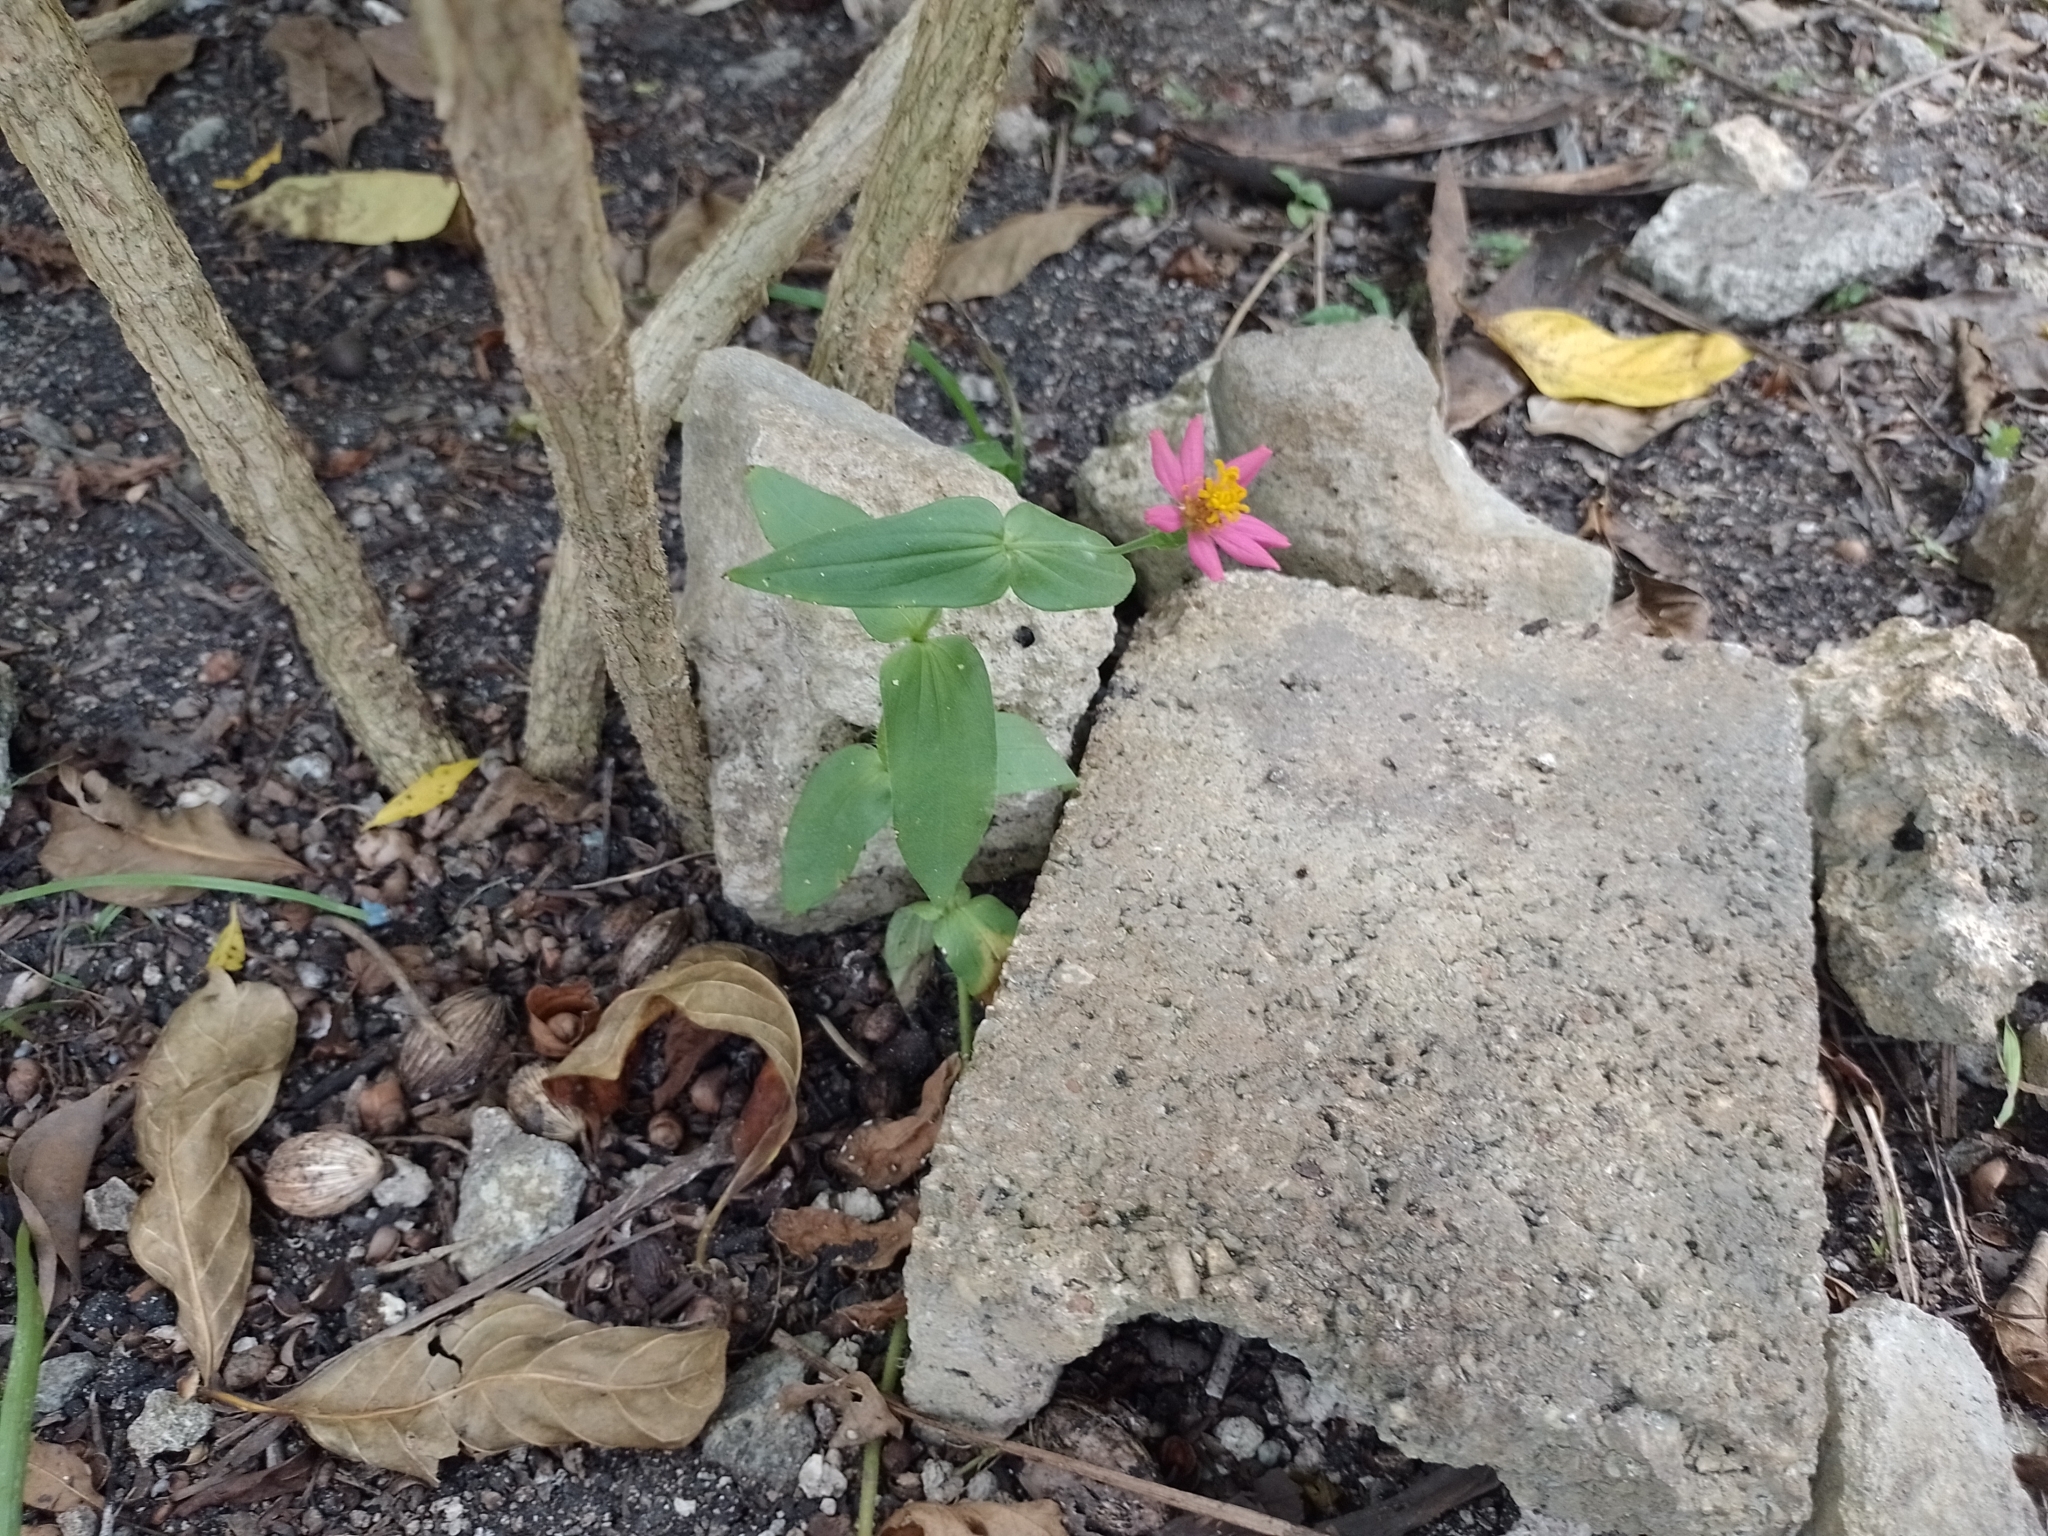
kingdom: Plantae
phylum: Tracheophyta
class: Magnoliopsida
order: Asterales
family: Asteraceae
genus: Zinnia
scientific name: Zinnia elegans
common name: Youth-and-age
